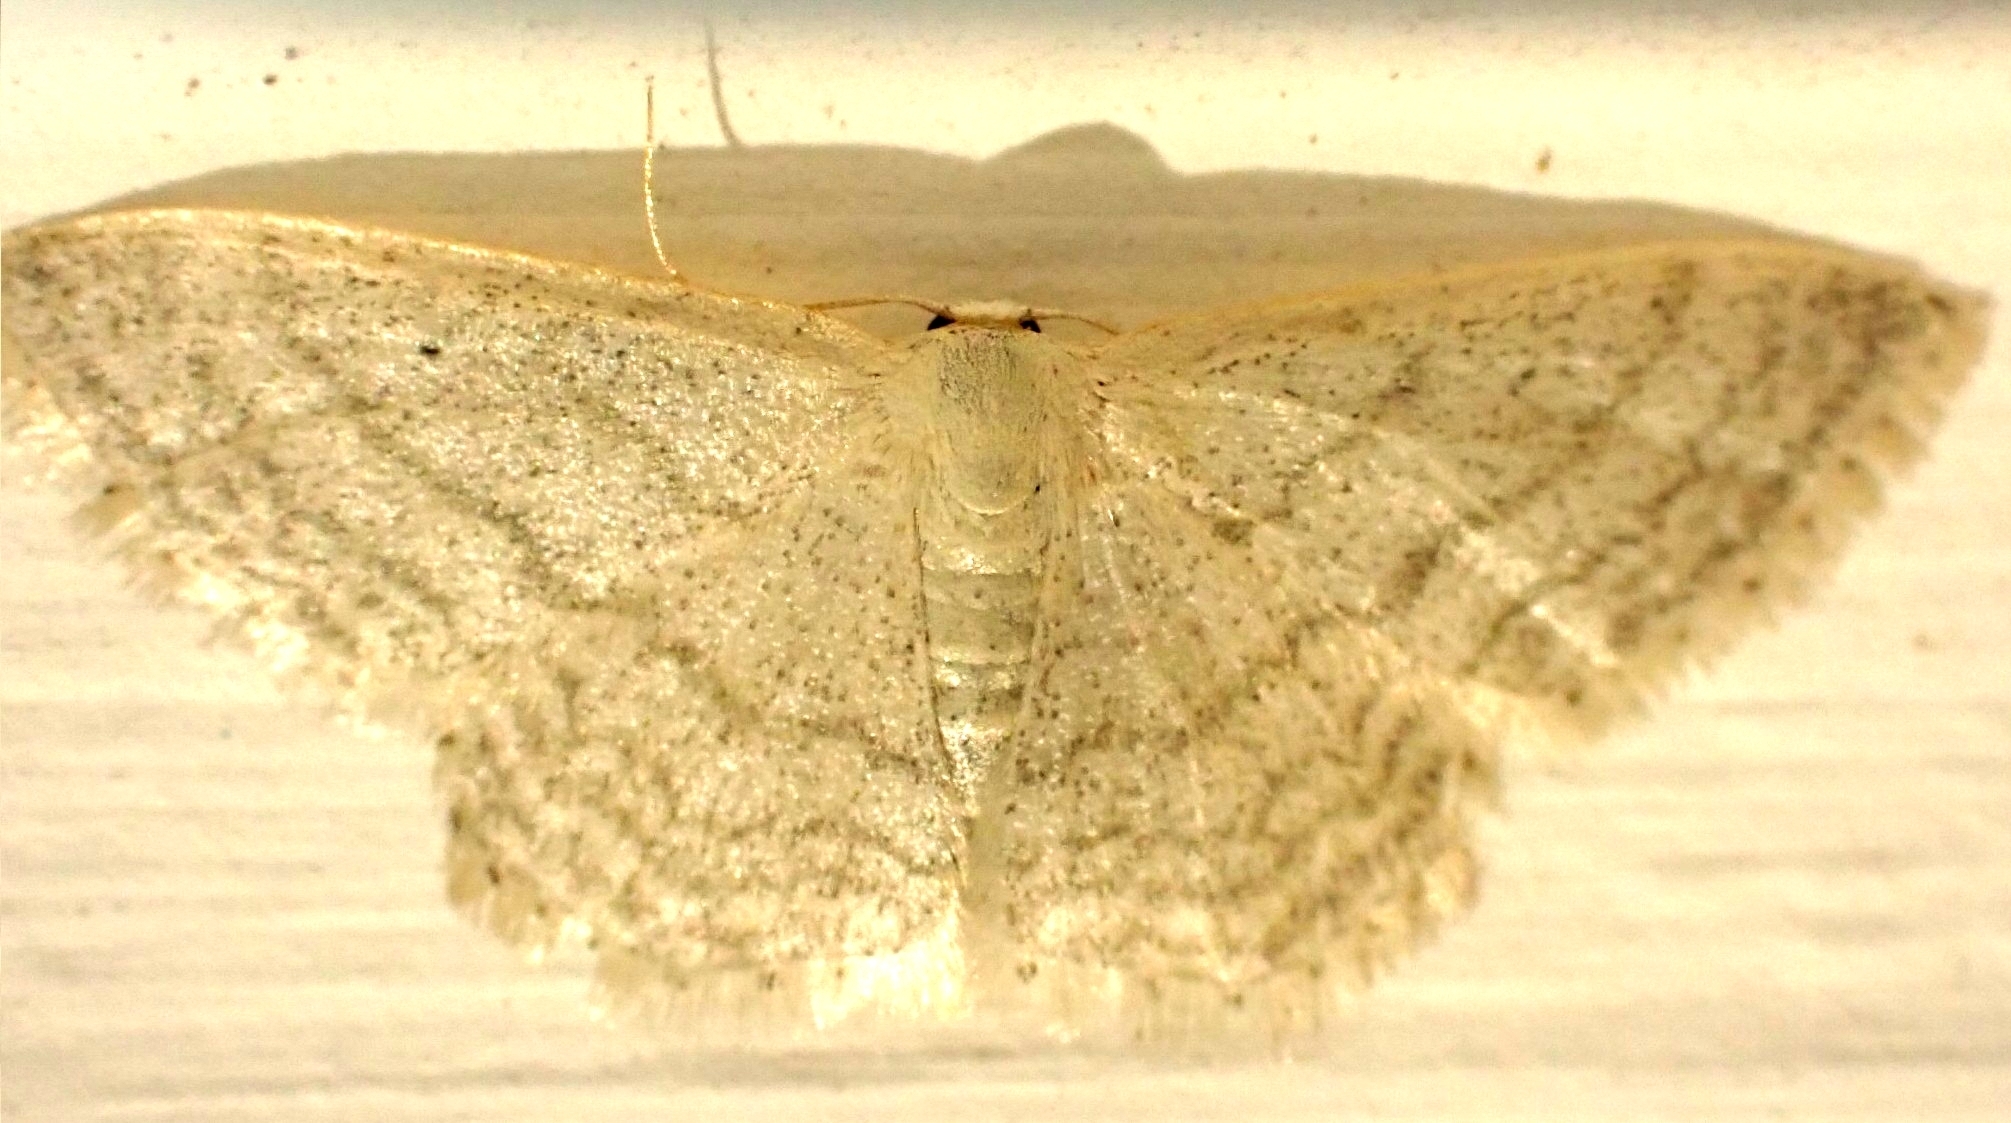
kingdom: Animalia
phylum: Arthropoda
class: Insecta
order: Lepidoptera
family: Geometridae
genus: Idaea
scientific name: Idaea subsericeata
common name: Satin wave
